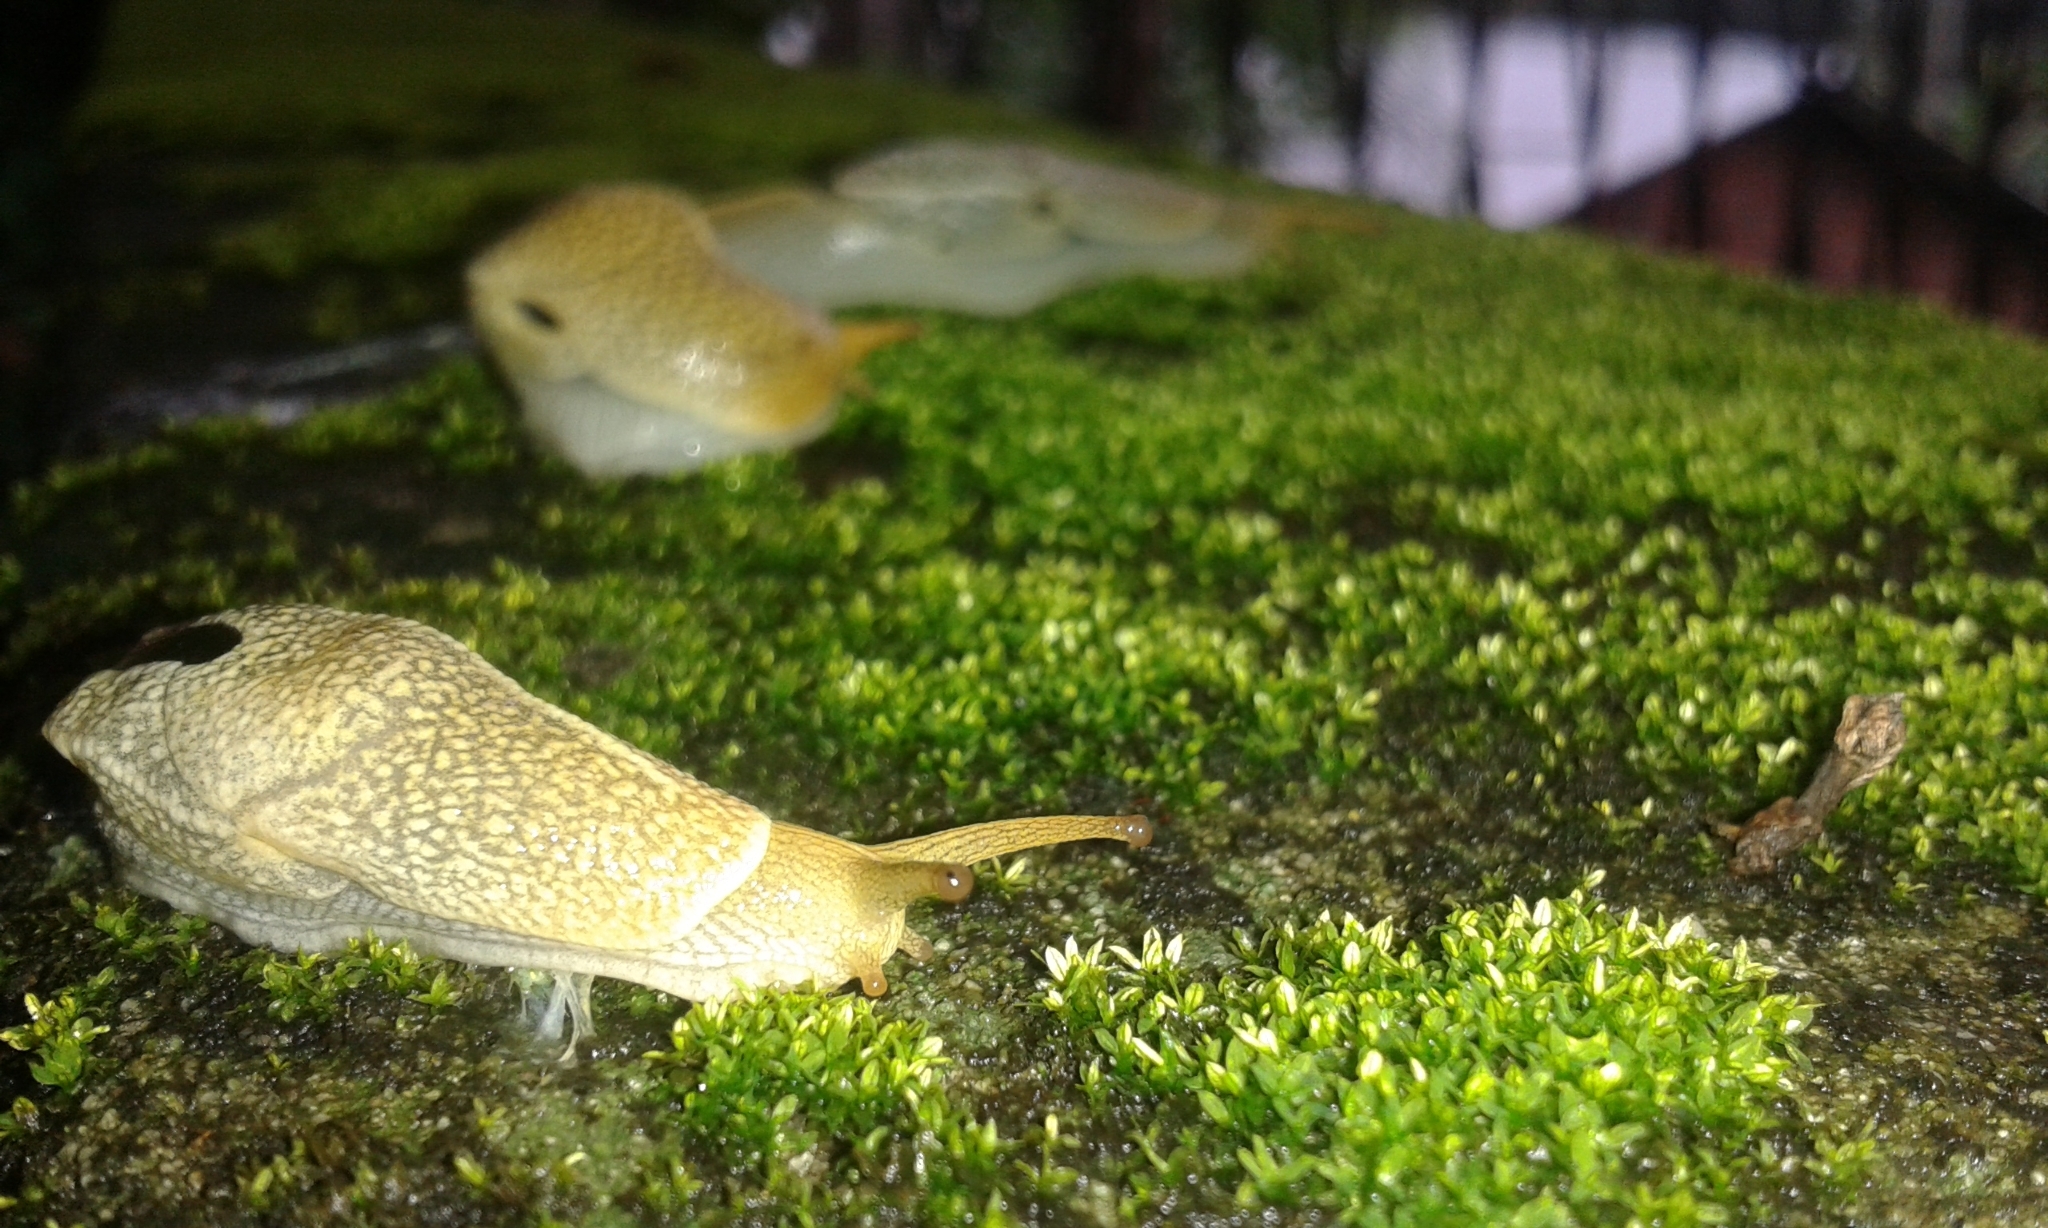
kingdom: Animalia
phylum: Mollusca
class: Gastropoda
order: Stylommatophora
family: Helicarionidae
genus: Girasia
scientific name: Girasia crocea
